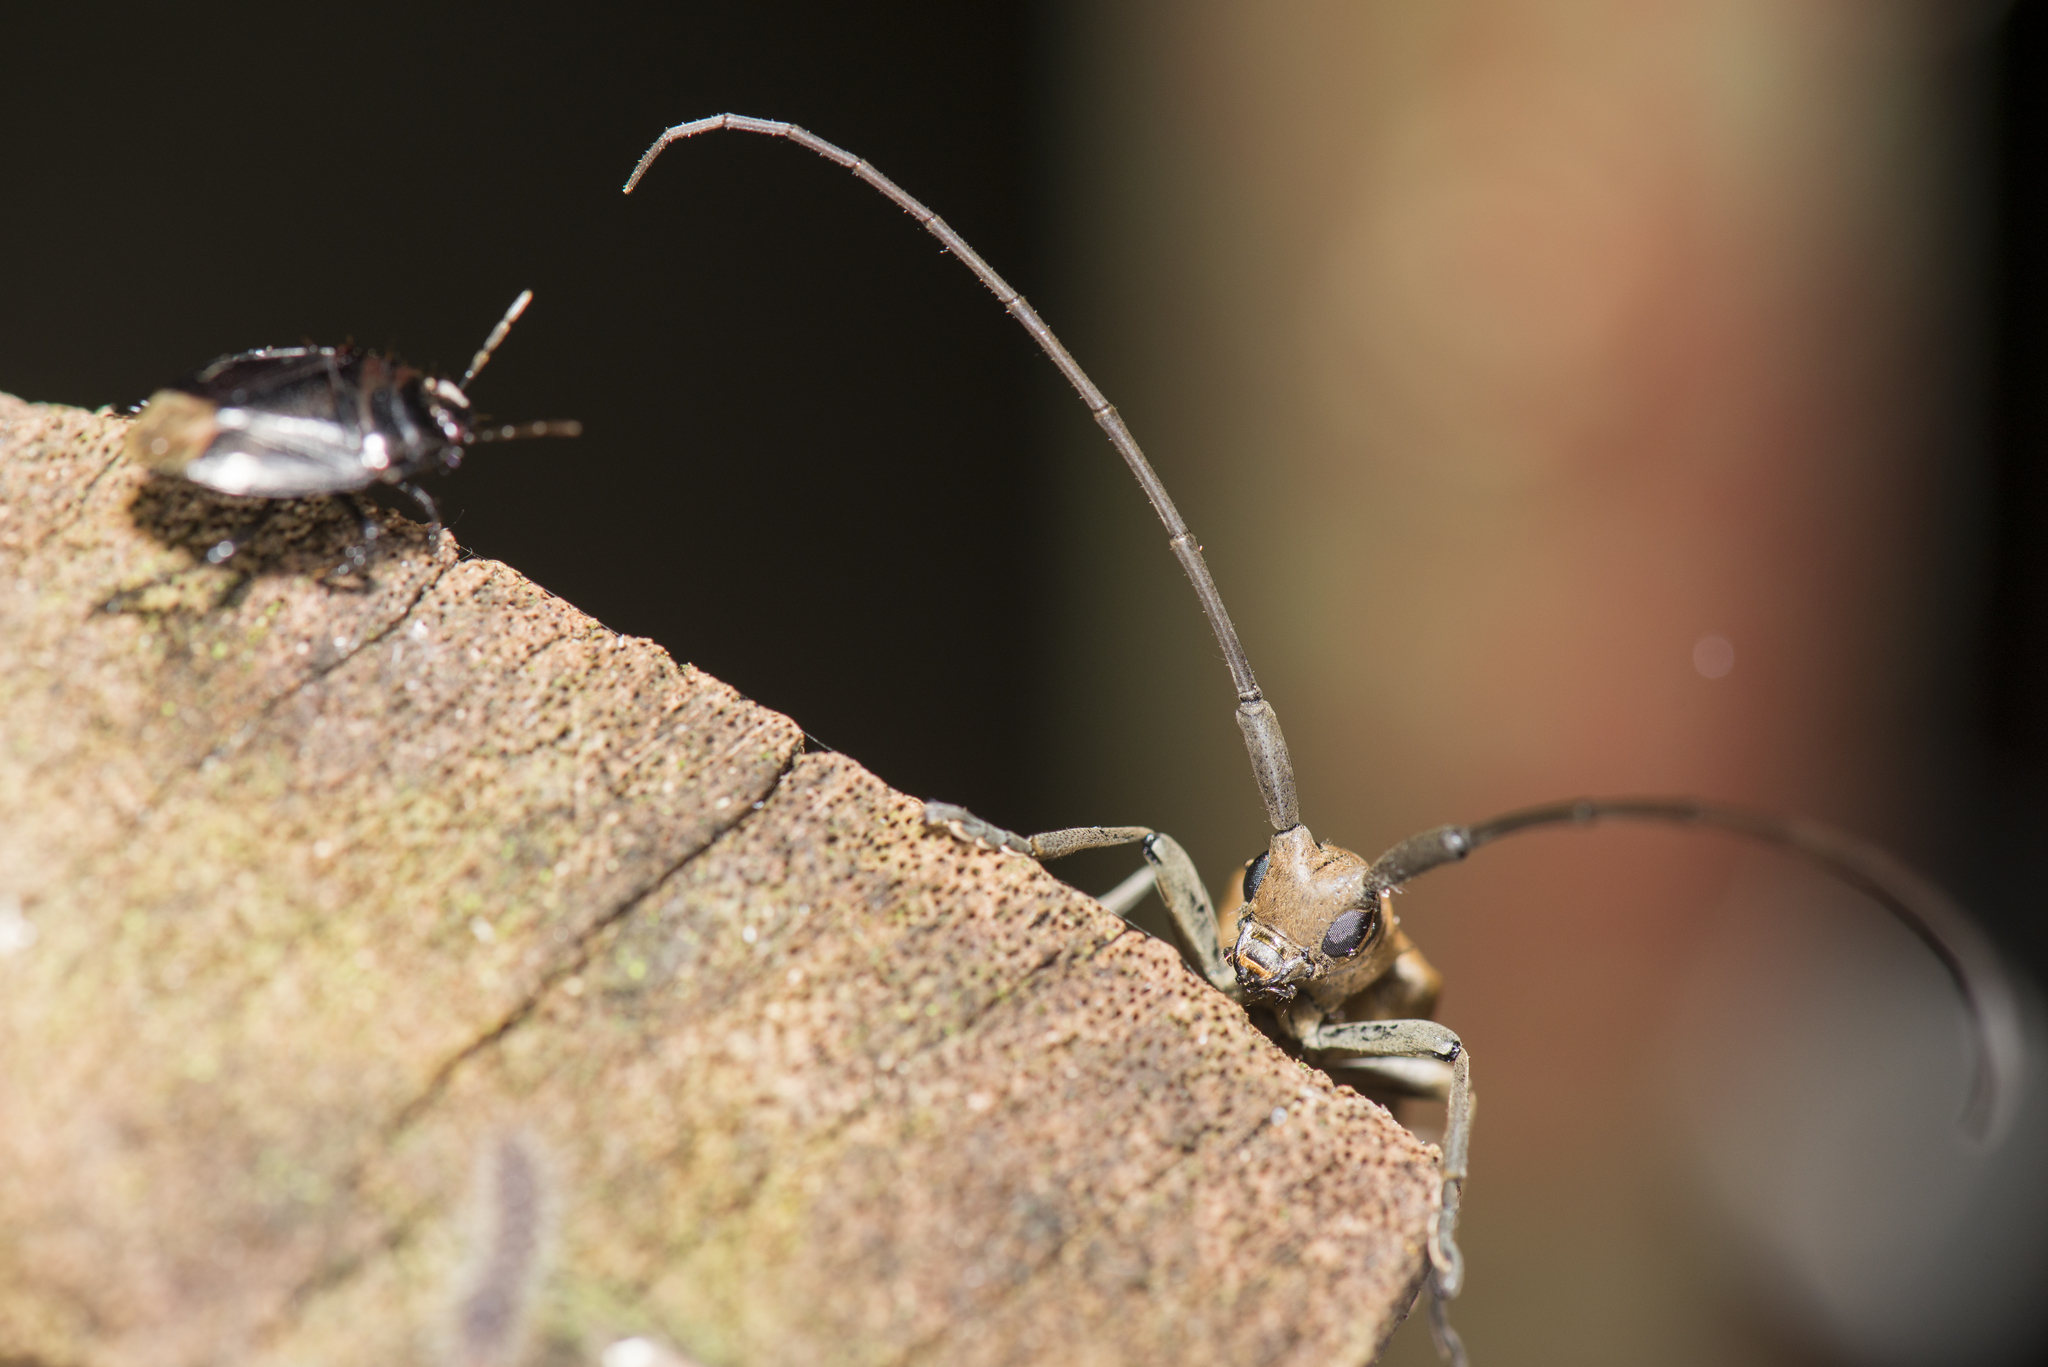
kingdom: Animalia
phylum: Arthropoda
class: Insecta
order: Coleoptera
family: Cerambycidae
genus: Peblephaeus
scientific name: Peblephaeus decoloratus
